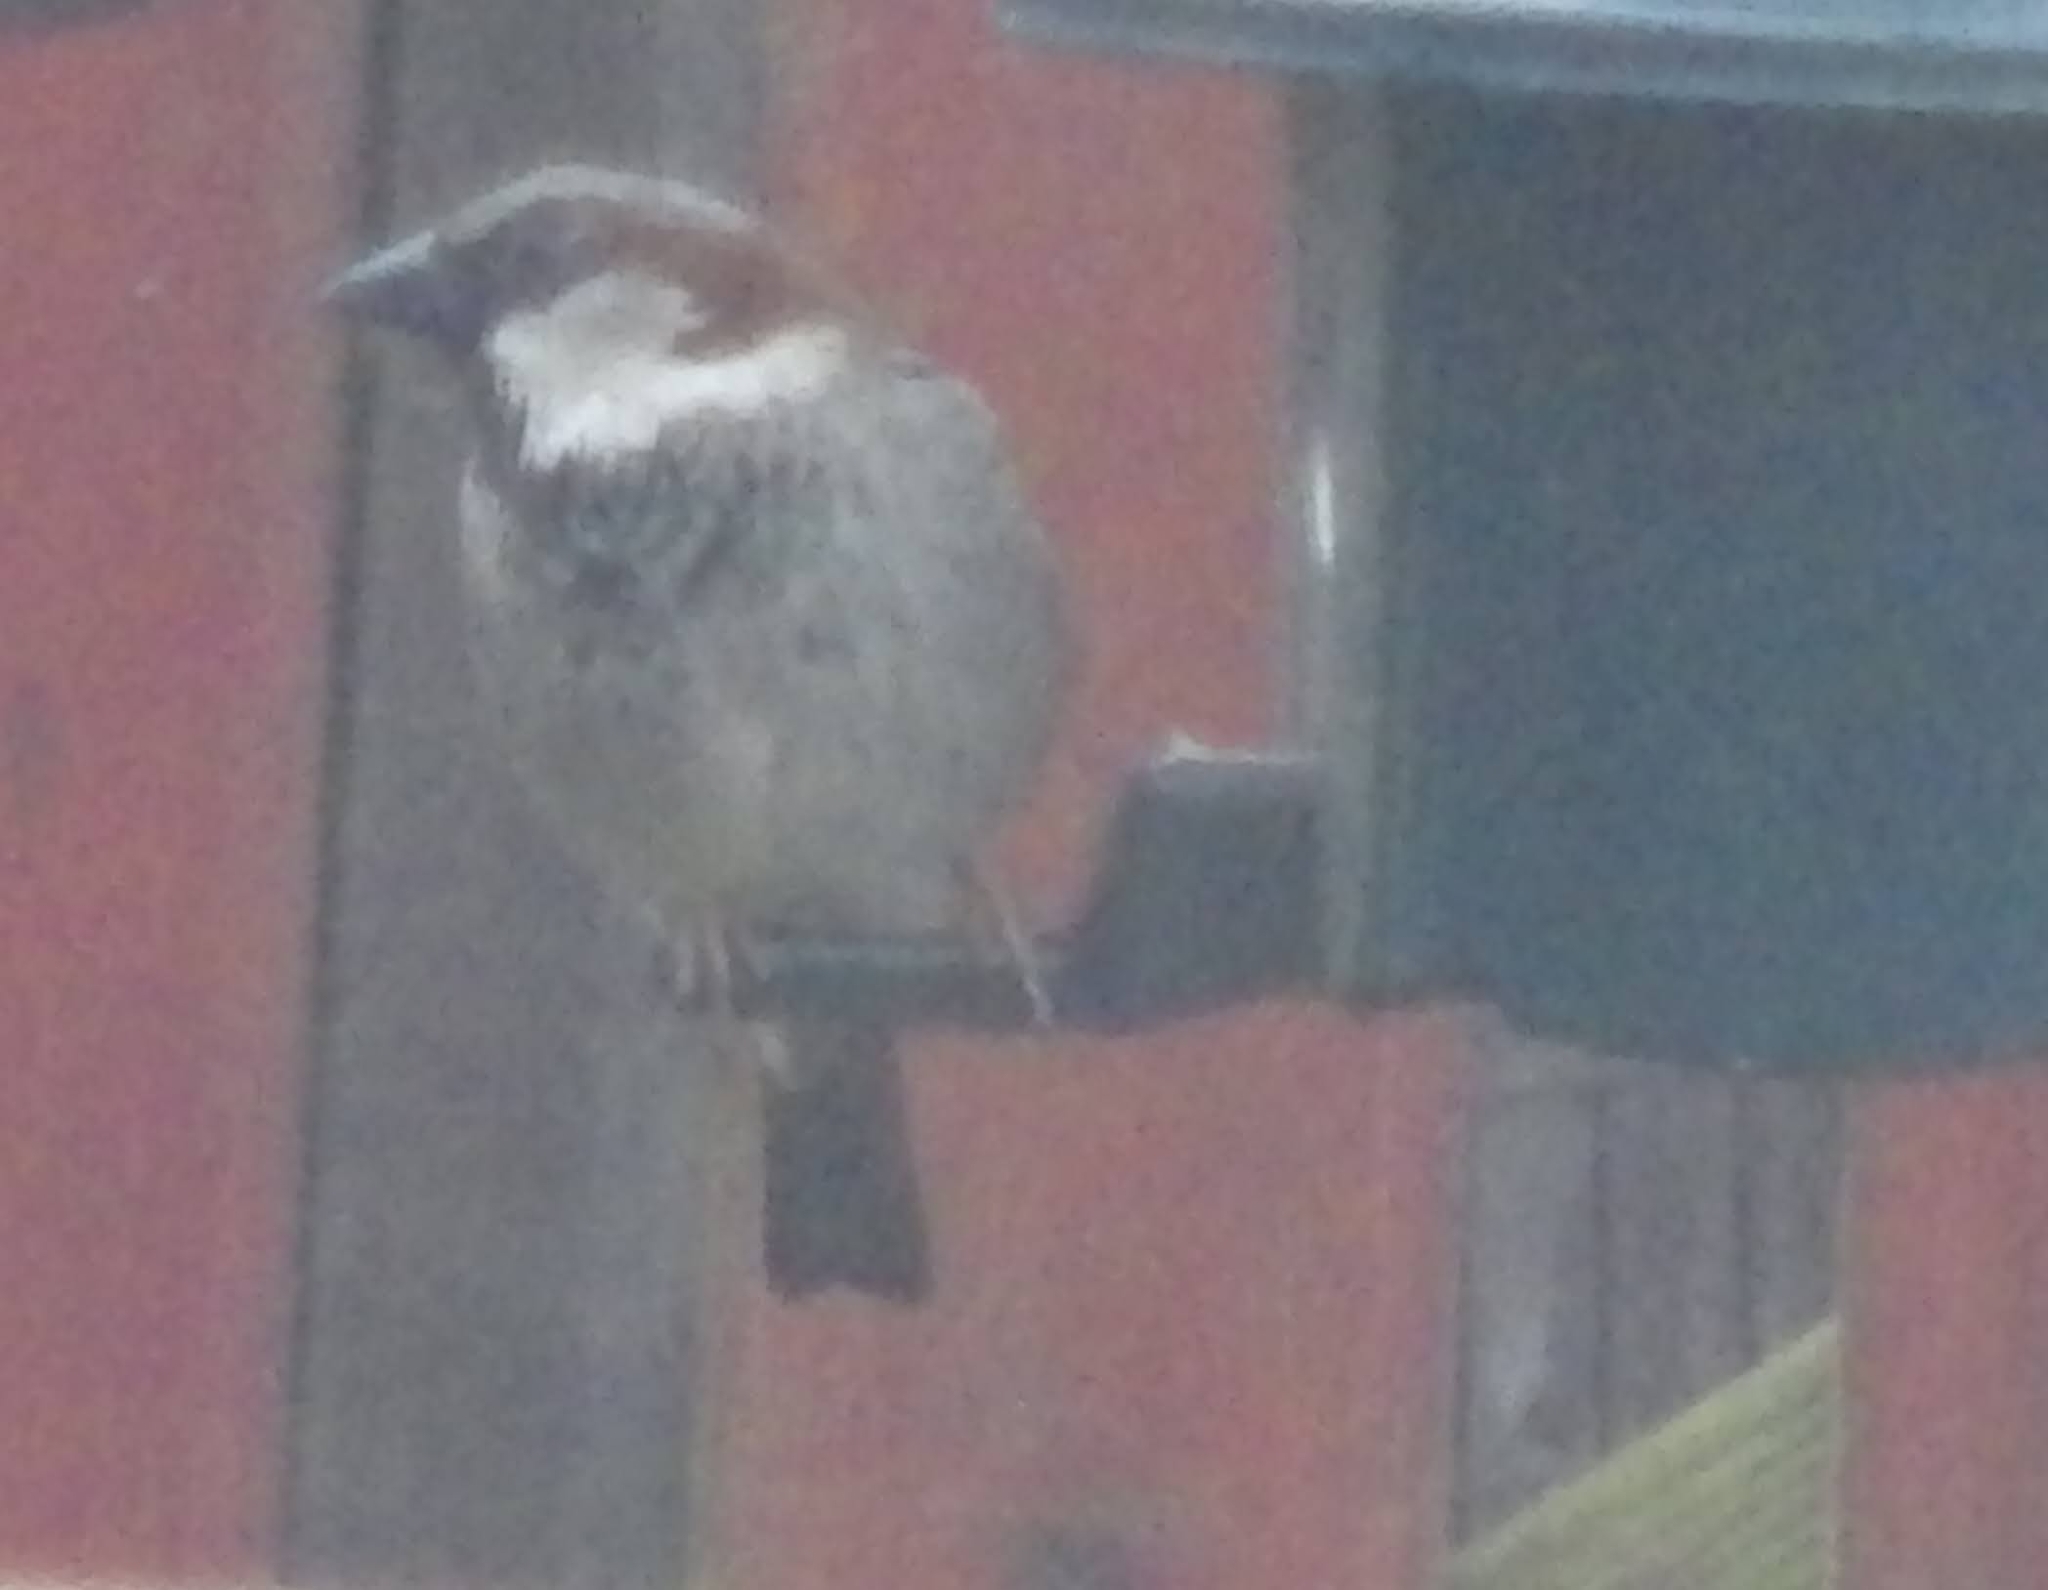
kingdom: Animalia
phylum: Chordata
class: Aves
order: Passeriformes
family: Passeridae
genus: Passer
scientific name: Passer domesticus
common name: House sparrow
